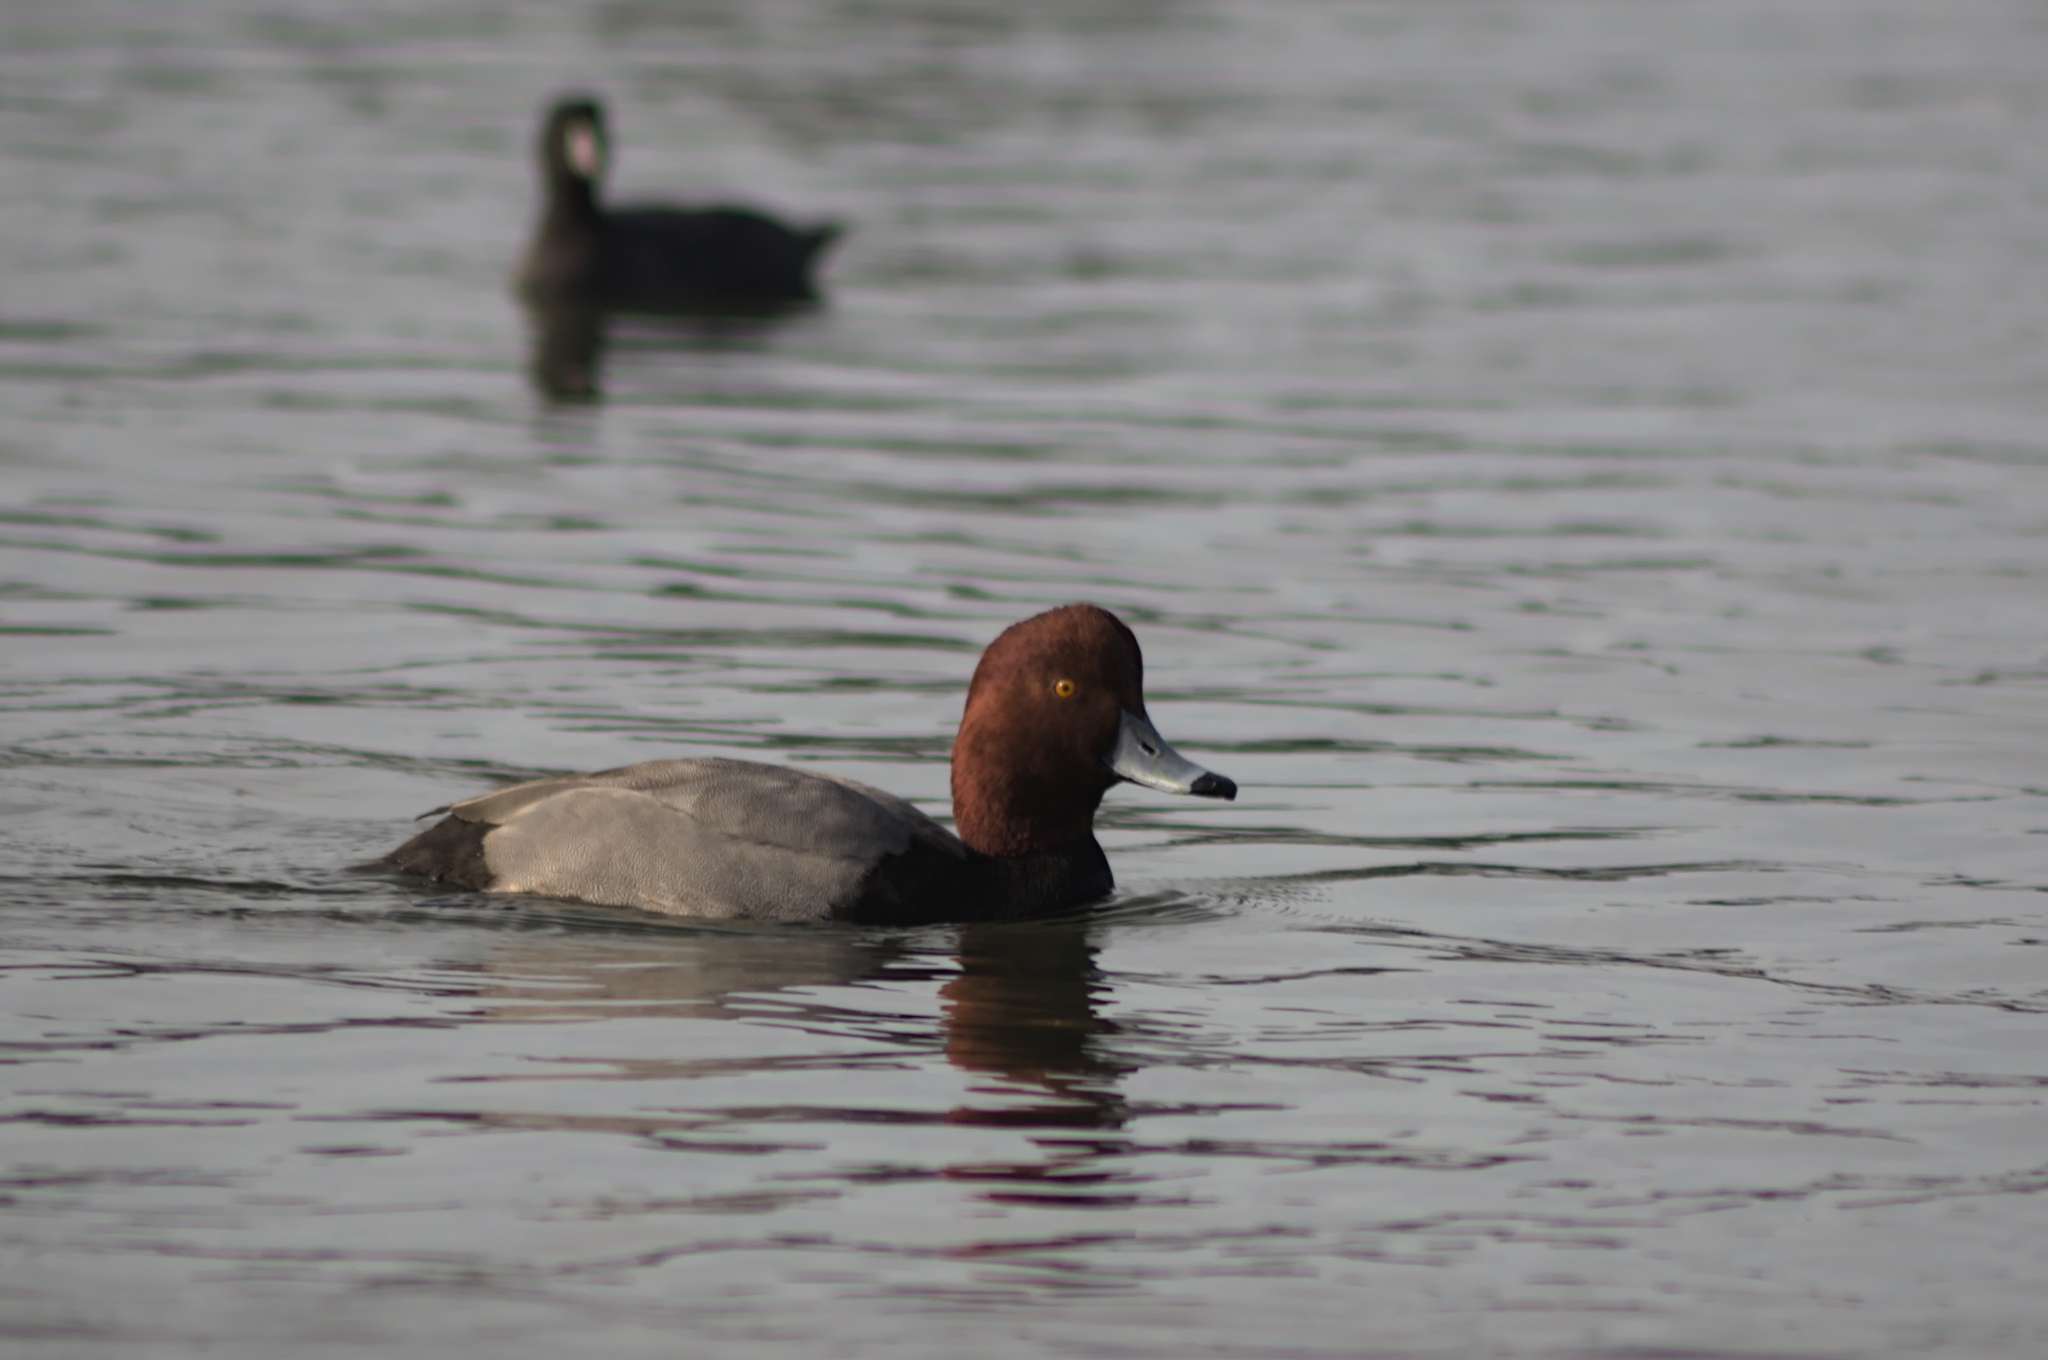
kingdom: Animalia
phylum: Chordata
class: Aves
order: Anseriformes
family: Anatidae
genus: Aythya
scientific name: Aythya americana
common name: Redhead
